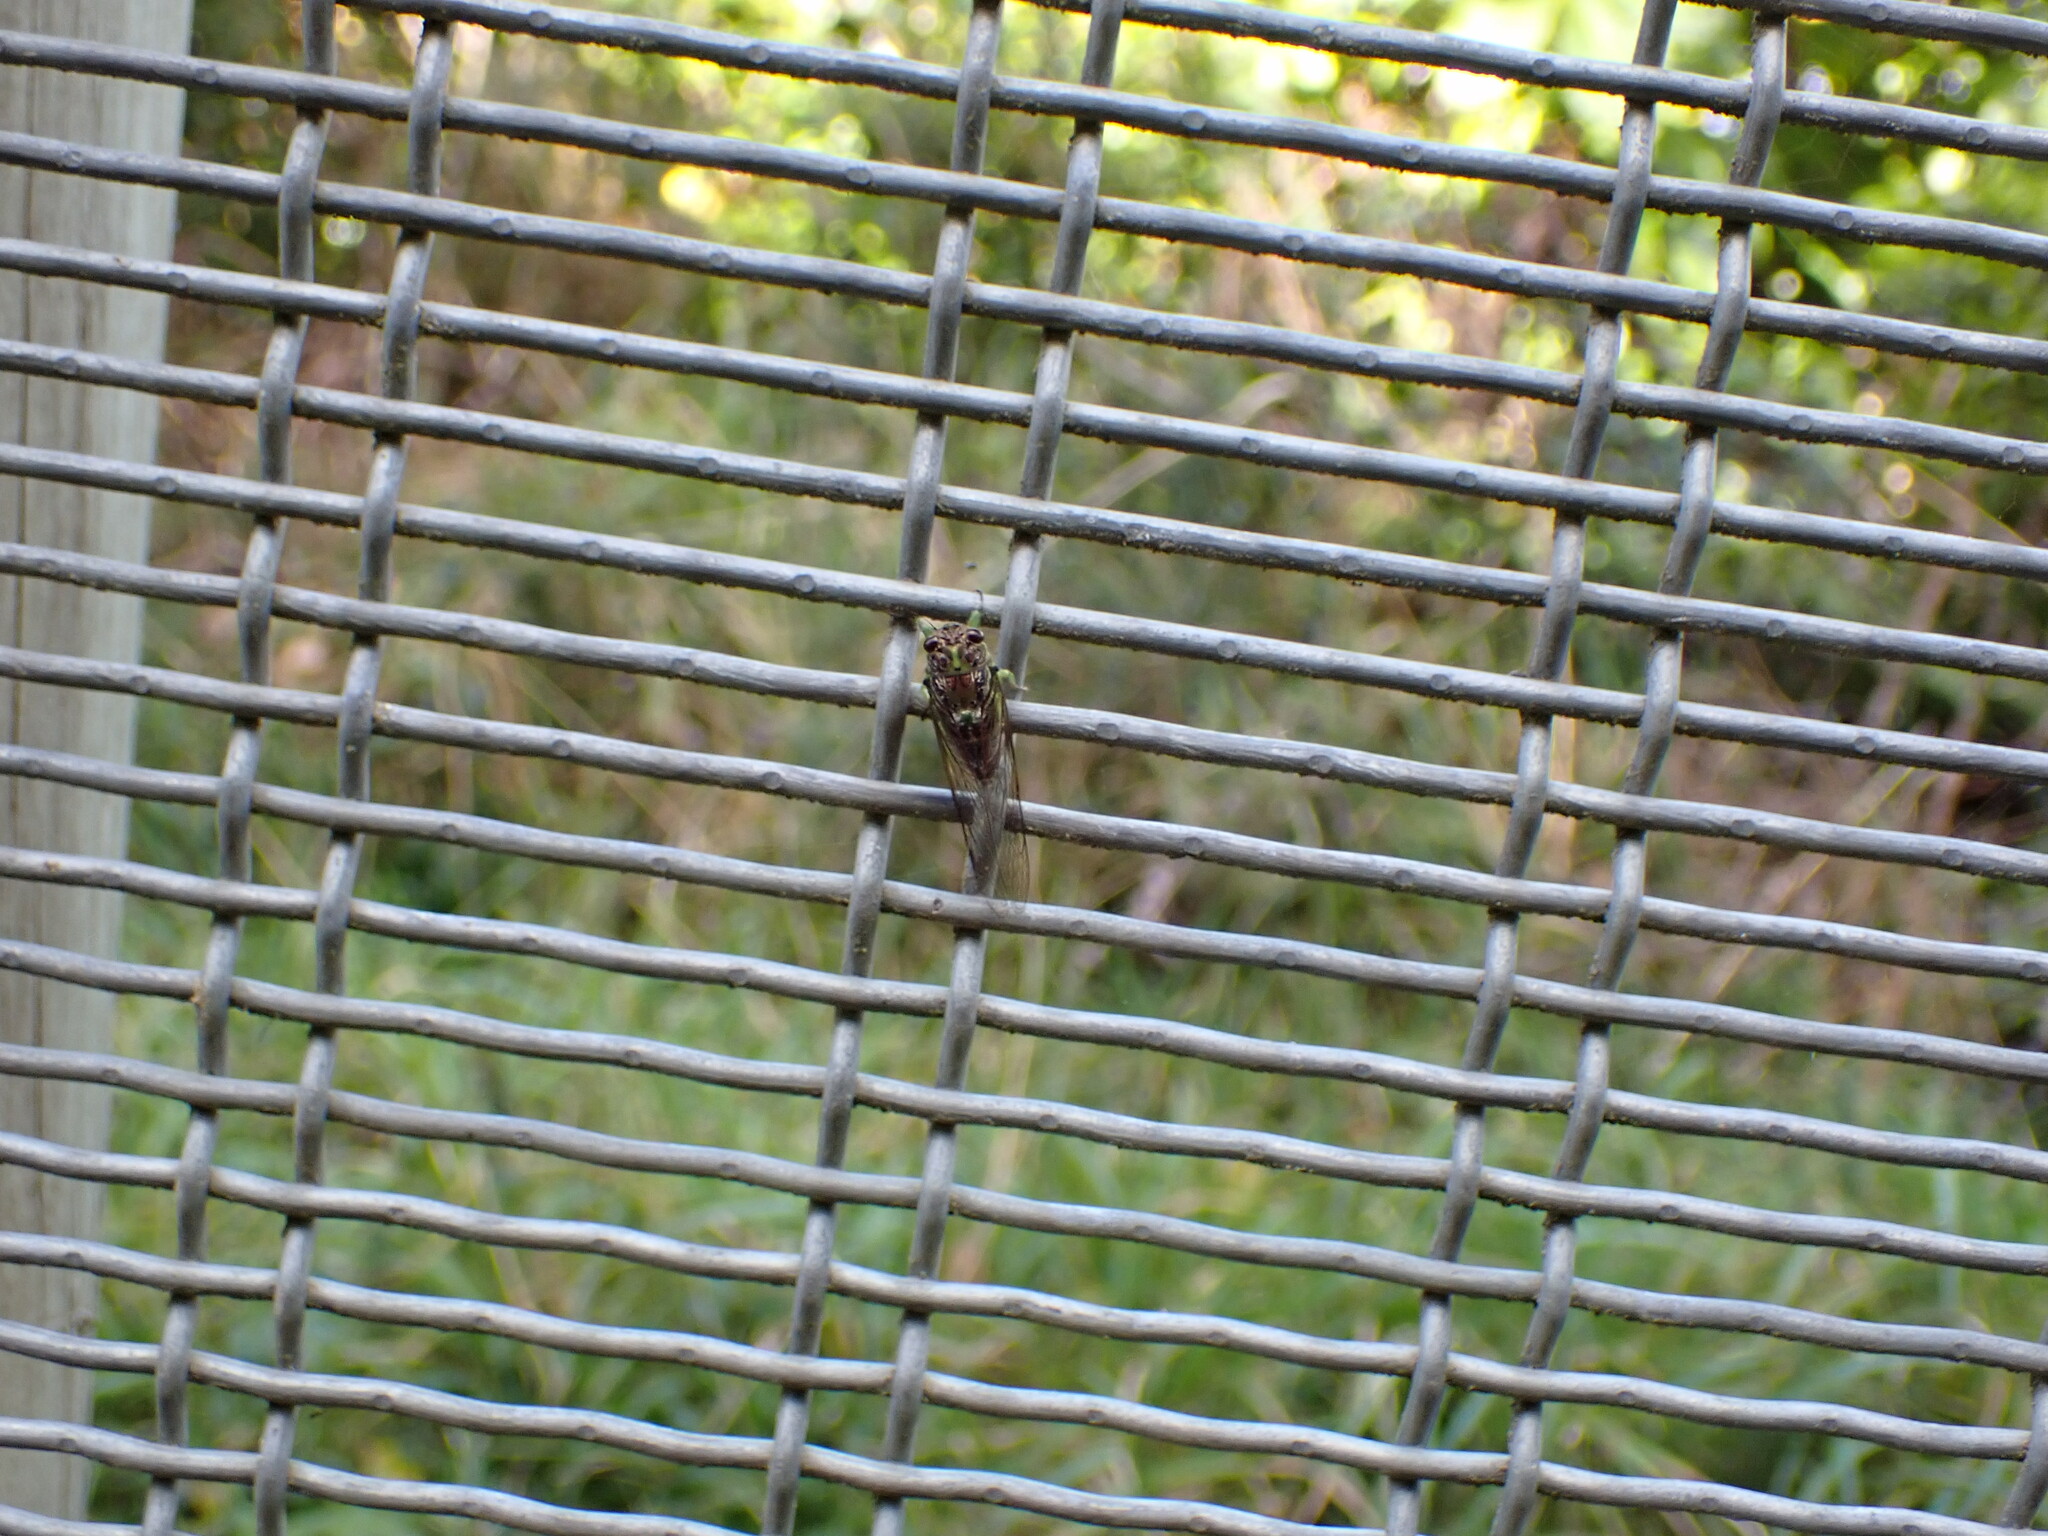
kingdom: Animalia
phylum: Arthropoda
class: Insecta
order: Hemiptera
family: Cicadidae
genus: Kikihia
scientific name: Kikihia scutellaris
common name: Lesser bronze cicada
